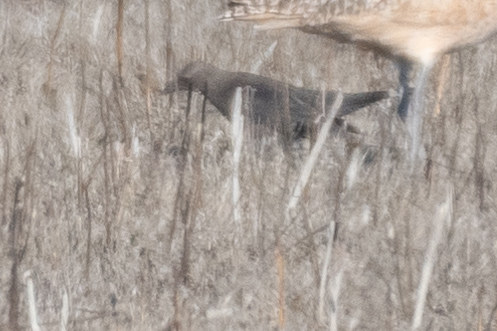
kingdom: Animalia
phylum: Chordata
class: Aves
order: Passeriformes
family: Icteridae
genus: Euphagus
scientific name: Euphagus cyanocephalus
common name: Brewer's blackbird
